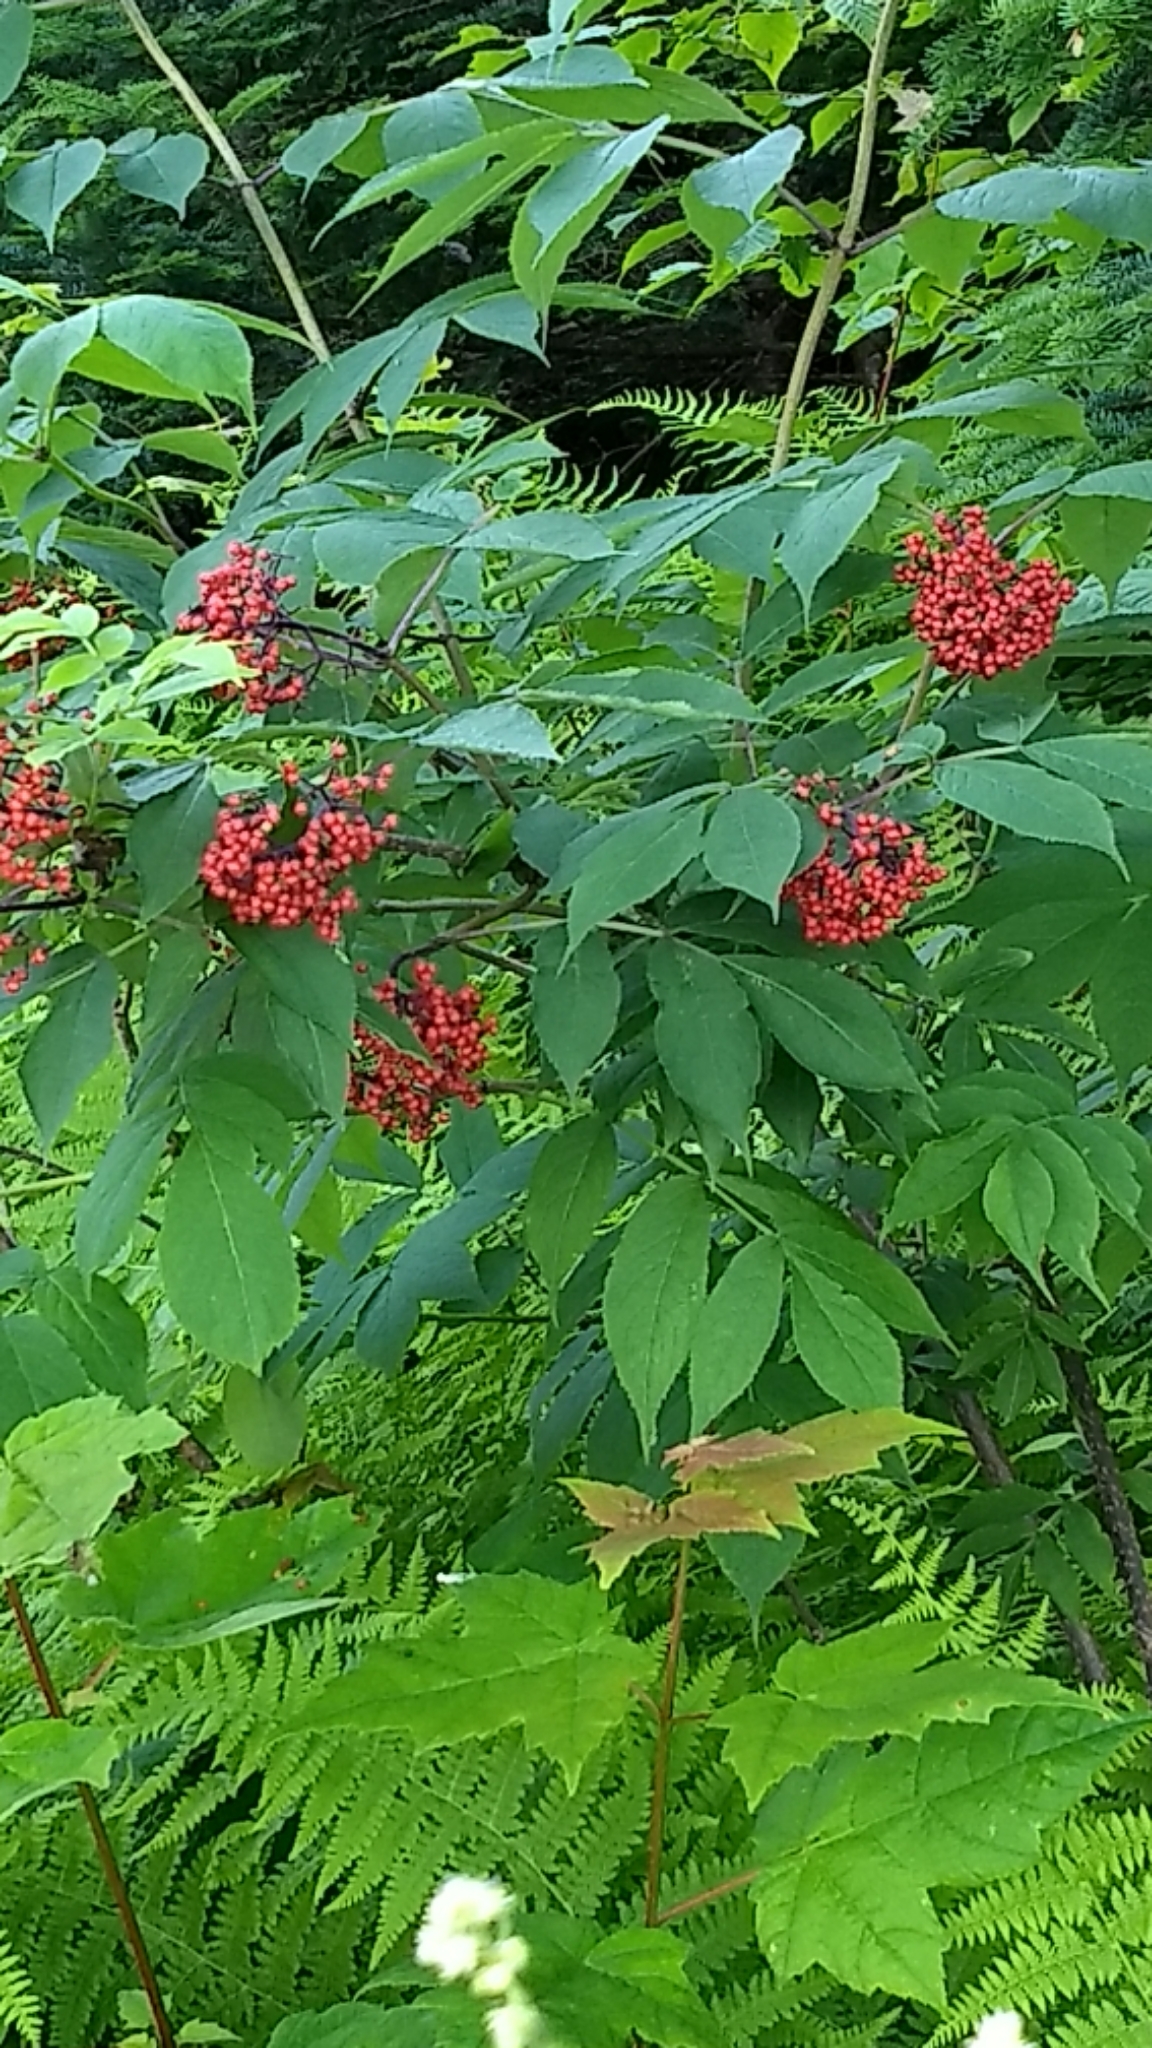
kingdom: Plantae
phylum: Tracheophyta
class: Magnoliopsida
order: Dipsacales
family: Viburnaceae
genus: Sambucus
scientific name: Sambucus racemosa
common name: Red-berried elder
